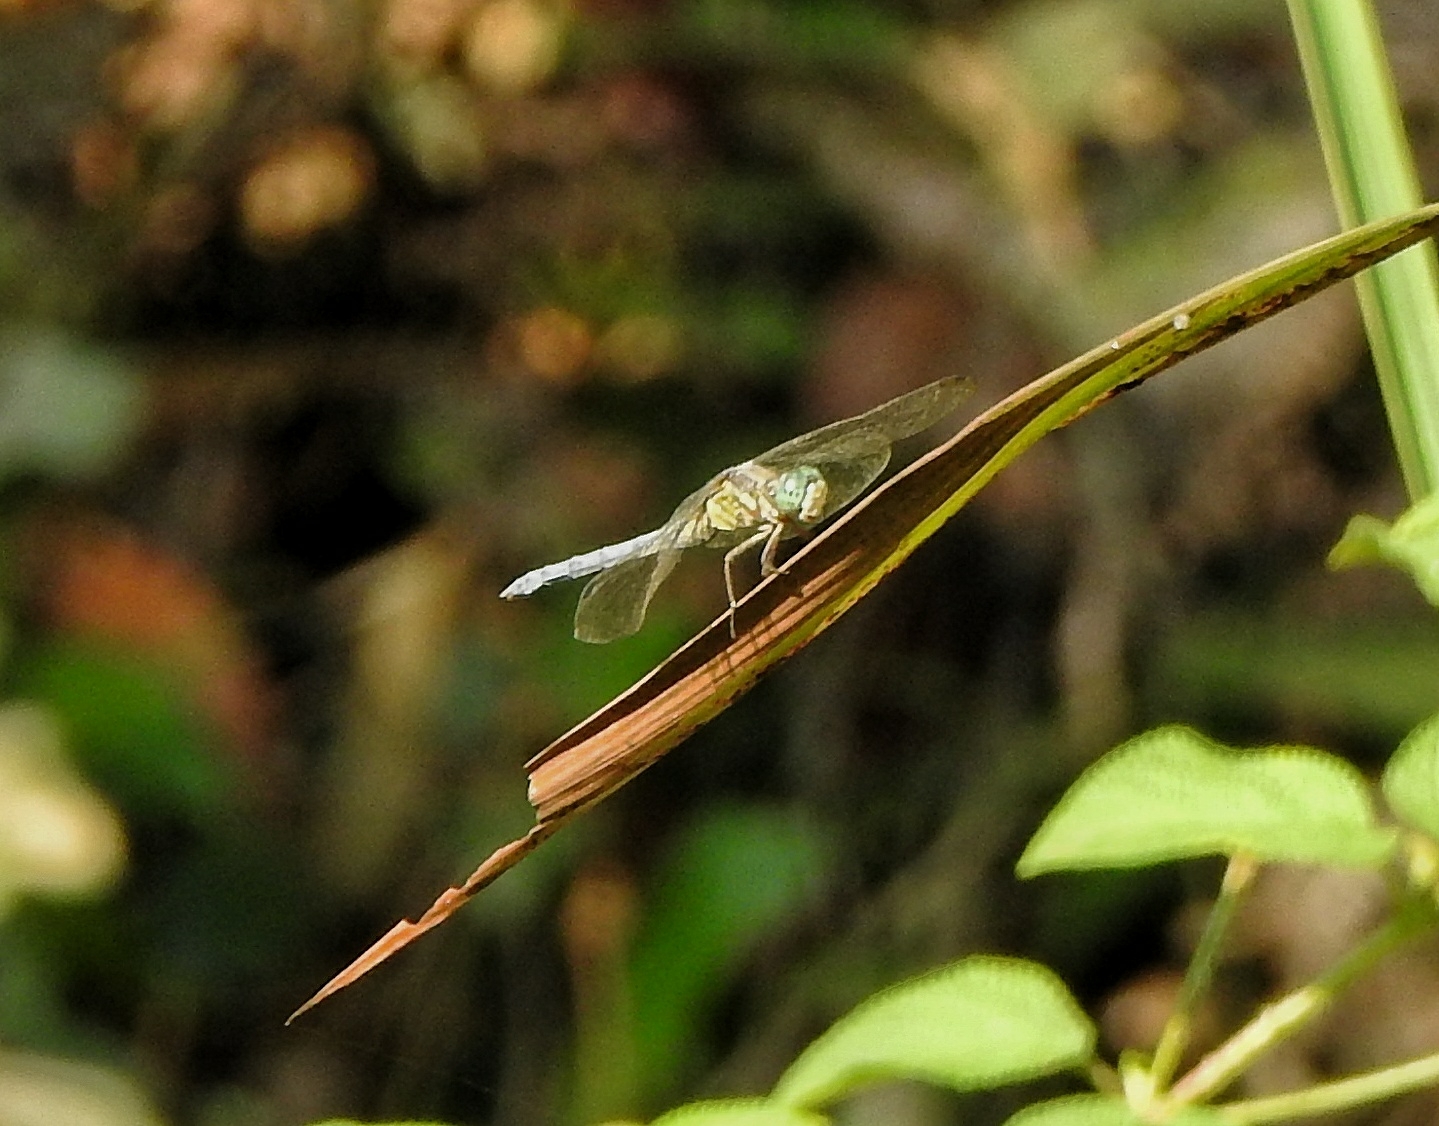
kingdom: Animalia
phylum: Arthropoda
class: Insecta
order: Odonata
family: Libellulidae
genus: Orthetrum
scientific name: Orthetrum luzonicum
